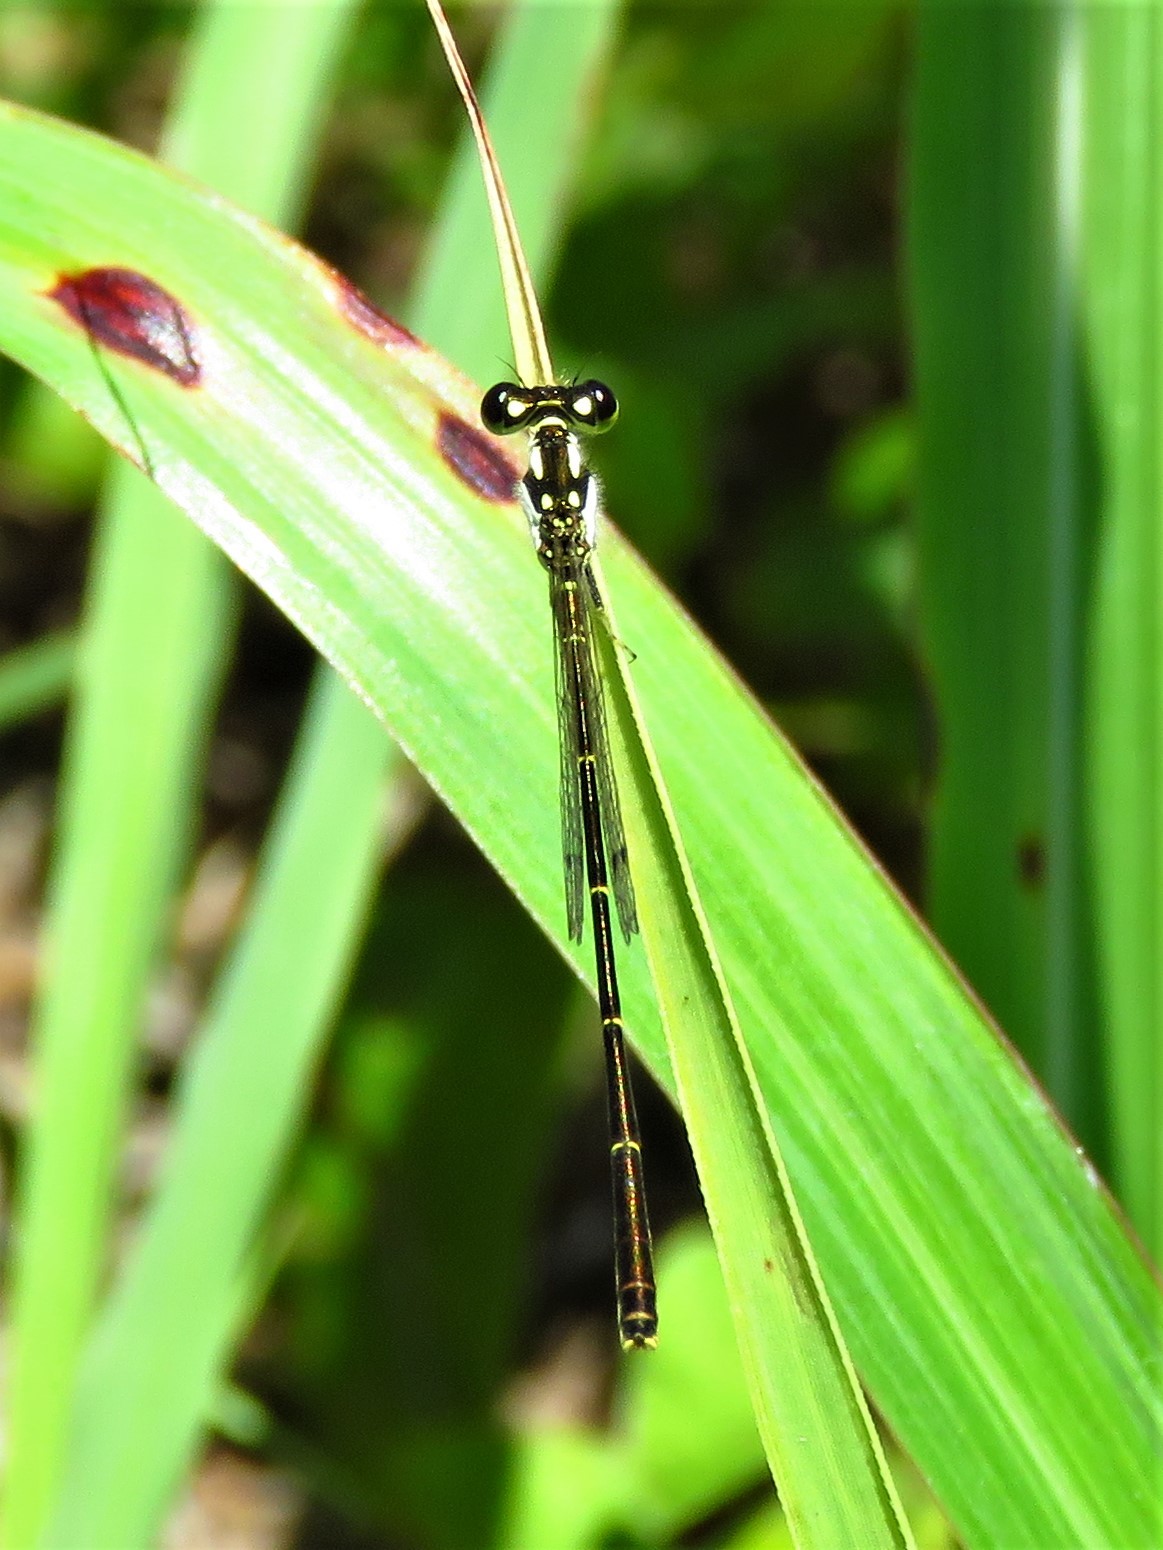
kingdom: Animalia
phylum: Arthropoda
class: Insecta
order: Odonata
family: Coenagrionidae
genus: Ischnura
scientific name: Ischnura posita
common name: Fragile forktail
